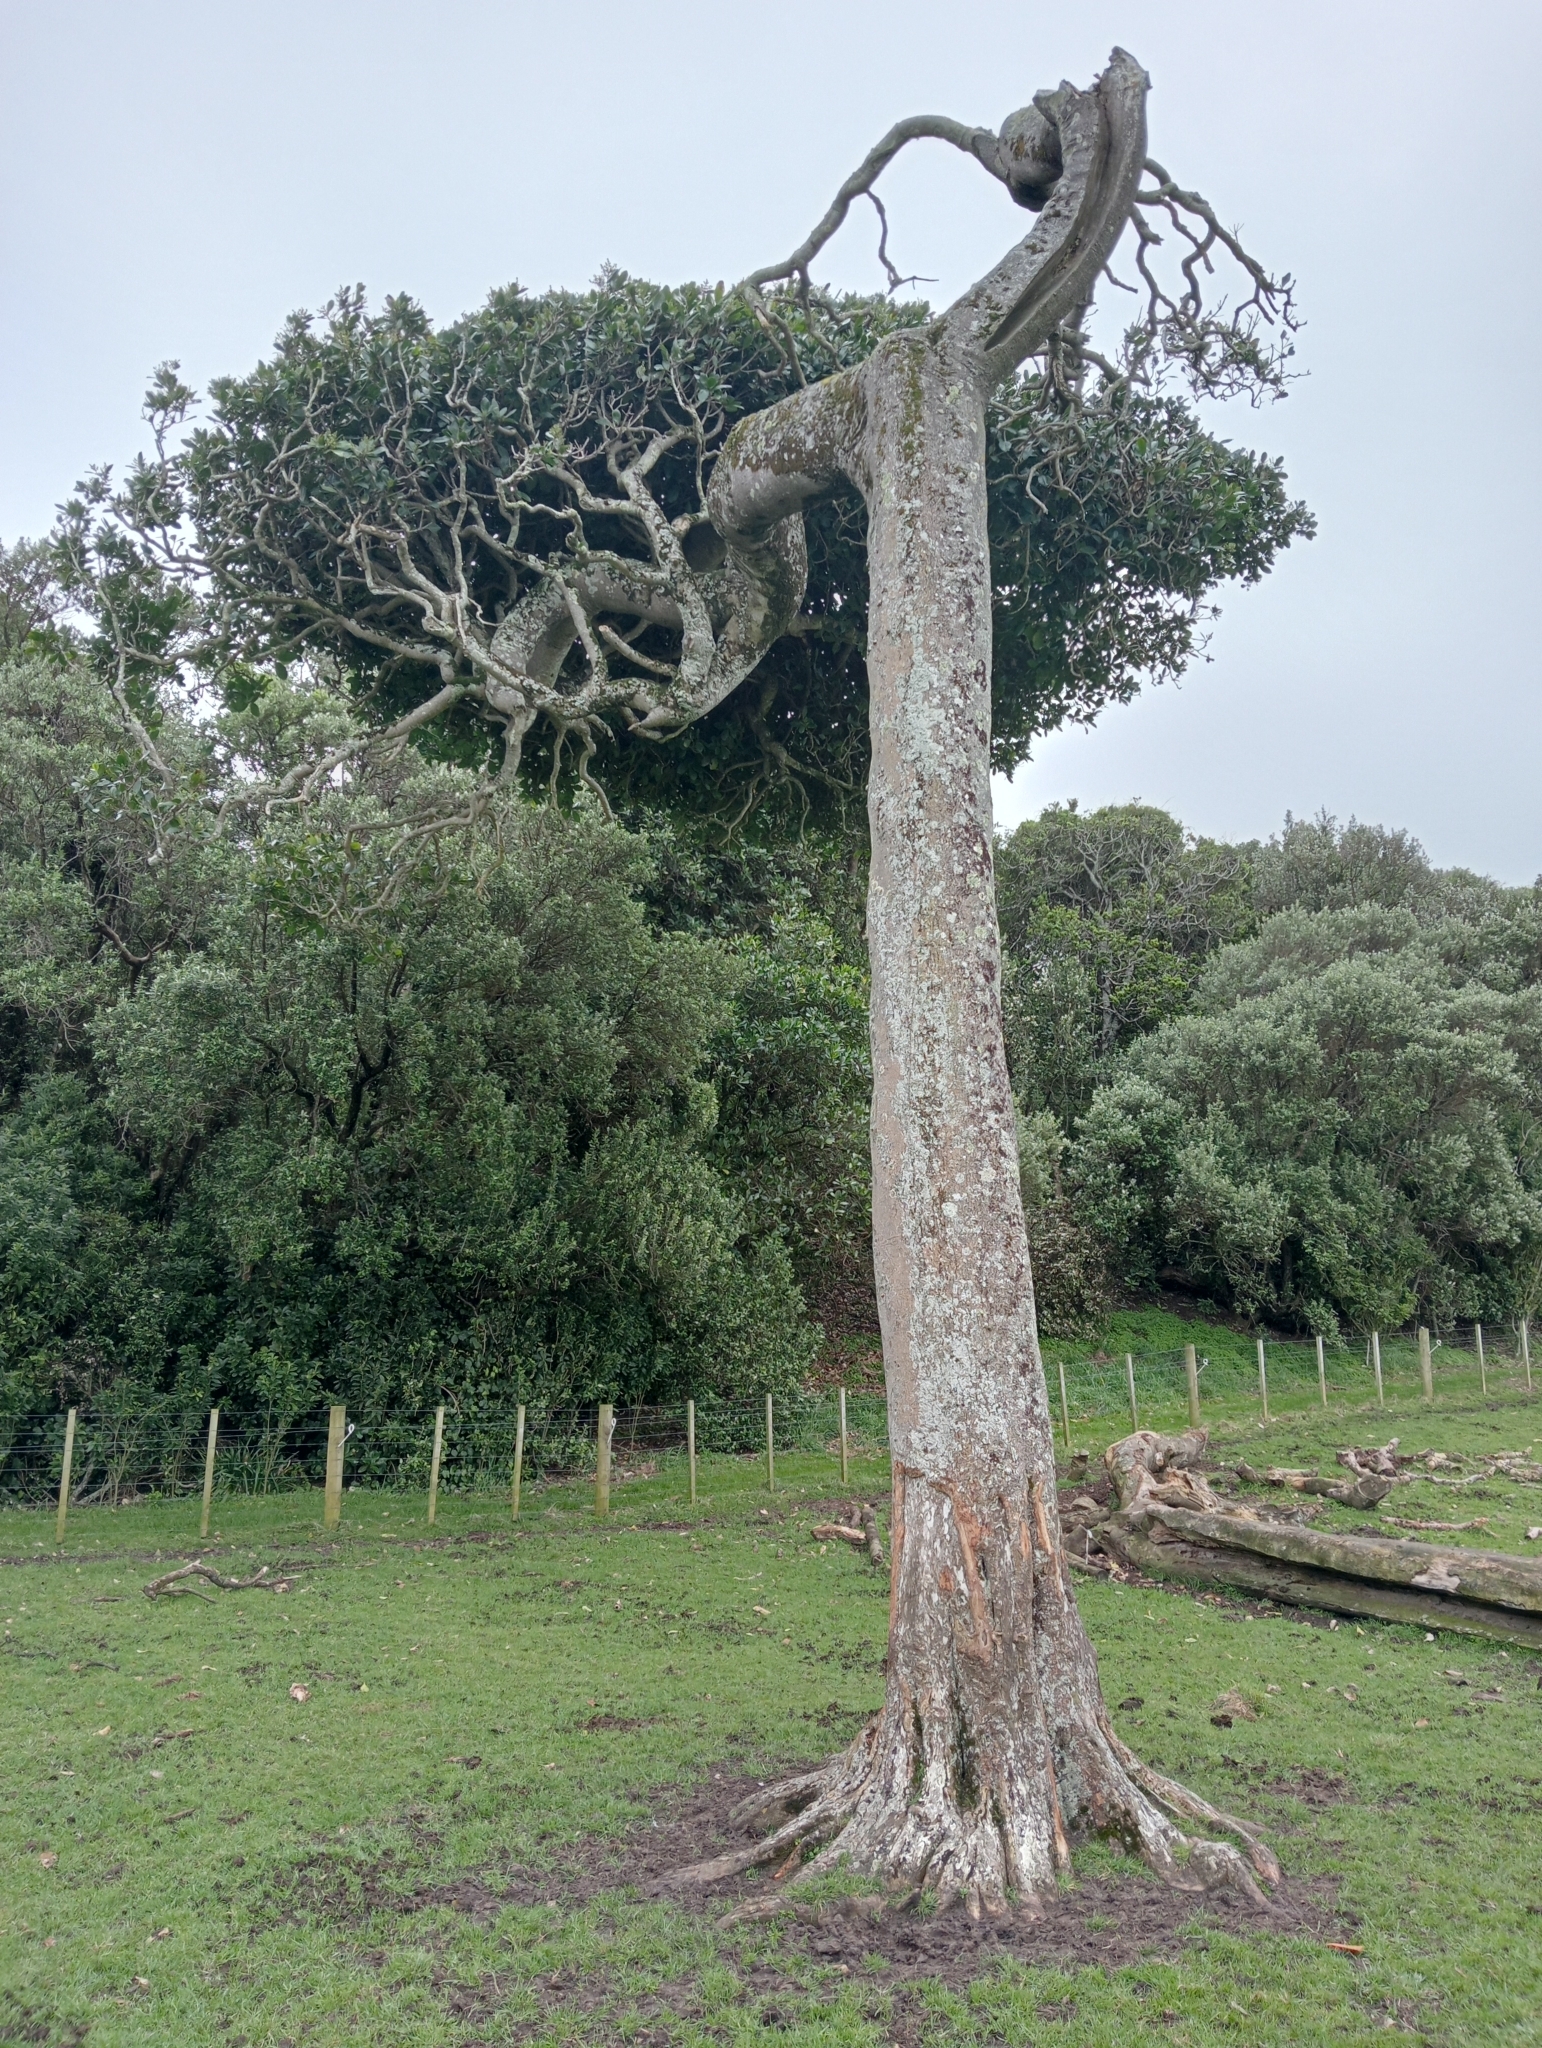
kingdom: Plantae
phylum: Tracheophyta
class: Magnoliopsida
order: Cucurbitales
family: Corynocarpaceae
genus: Corynocarpus
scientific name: Corynocarpus laevigatus
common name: New zealand laurel
